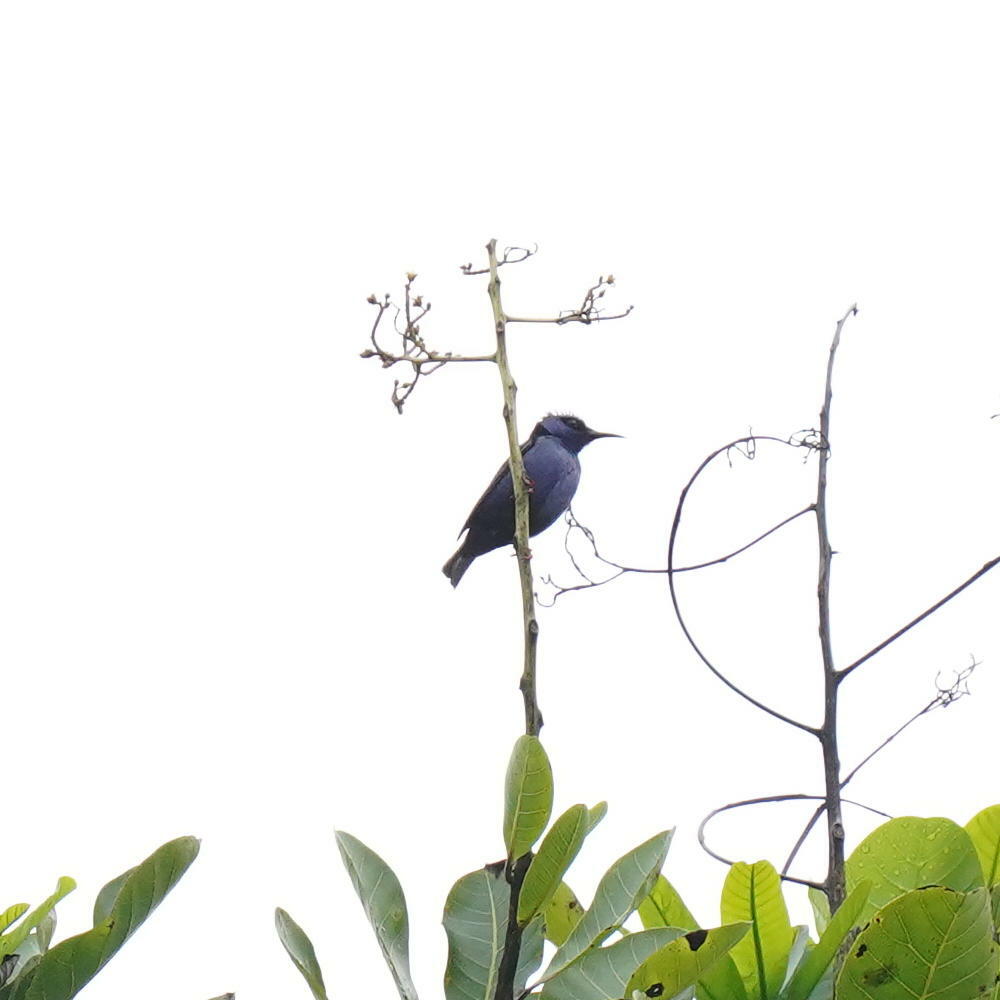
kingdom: Animalia
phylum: Chordata
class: Aves
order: Passeriformes
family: Thraupidae
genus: Cyanerpes
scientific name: Cyanerpes cyaneus
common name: Red-legged honeycreeper
